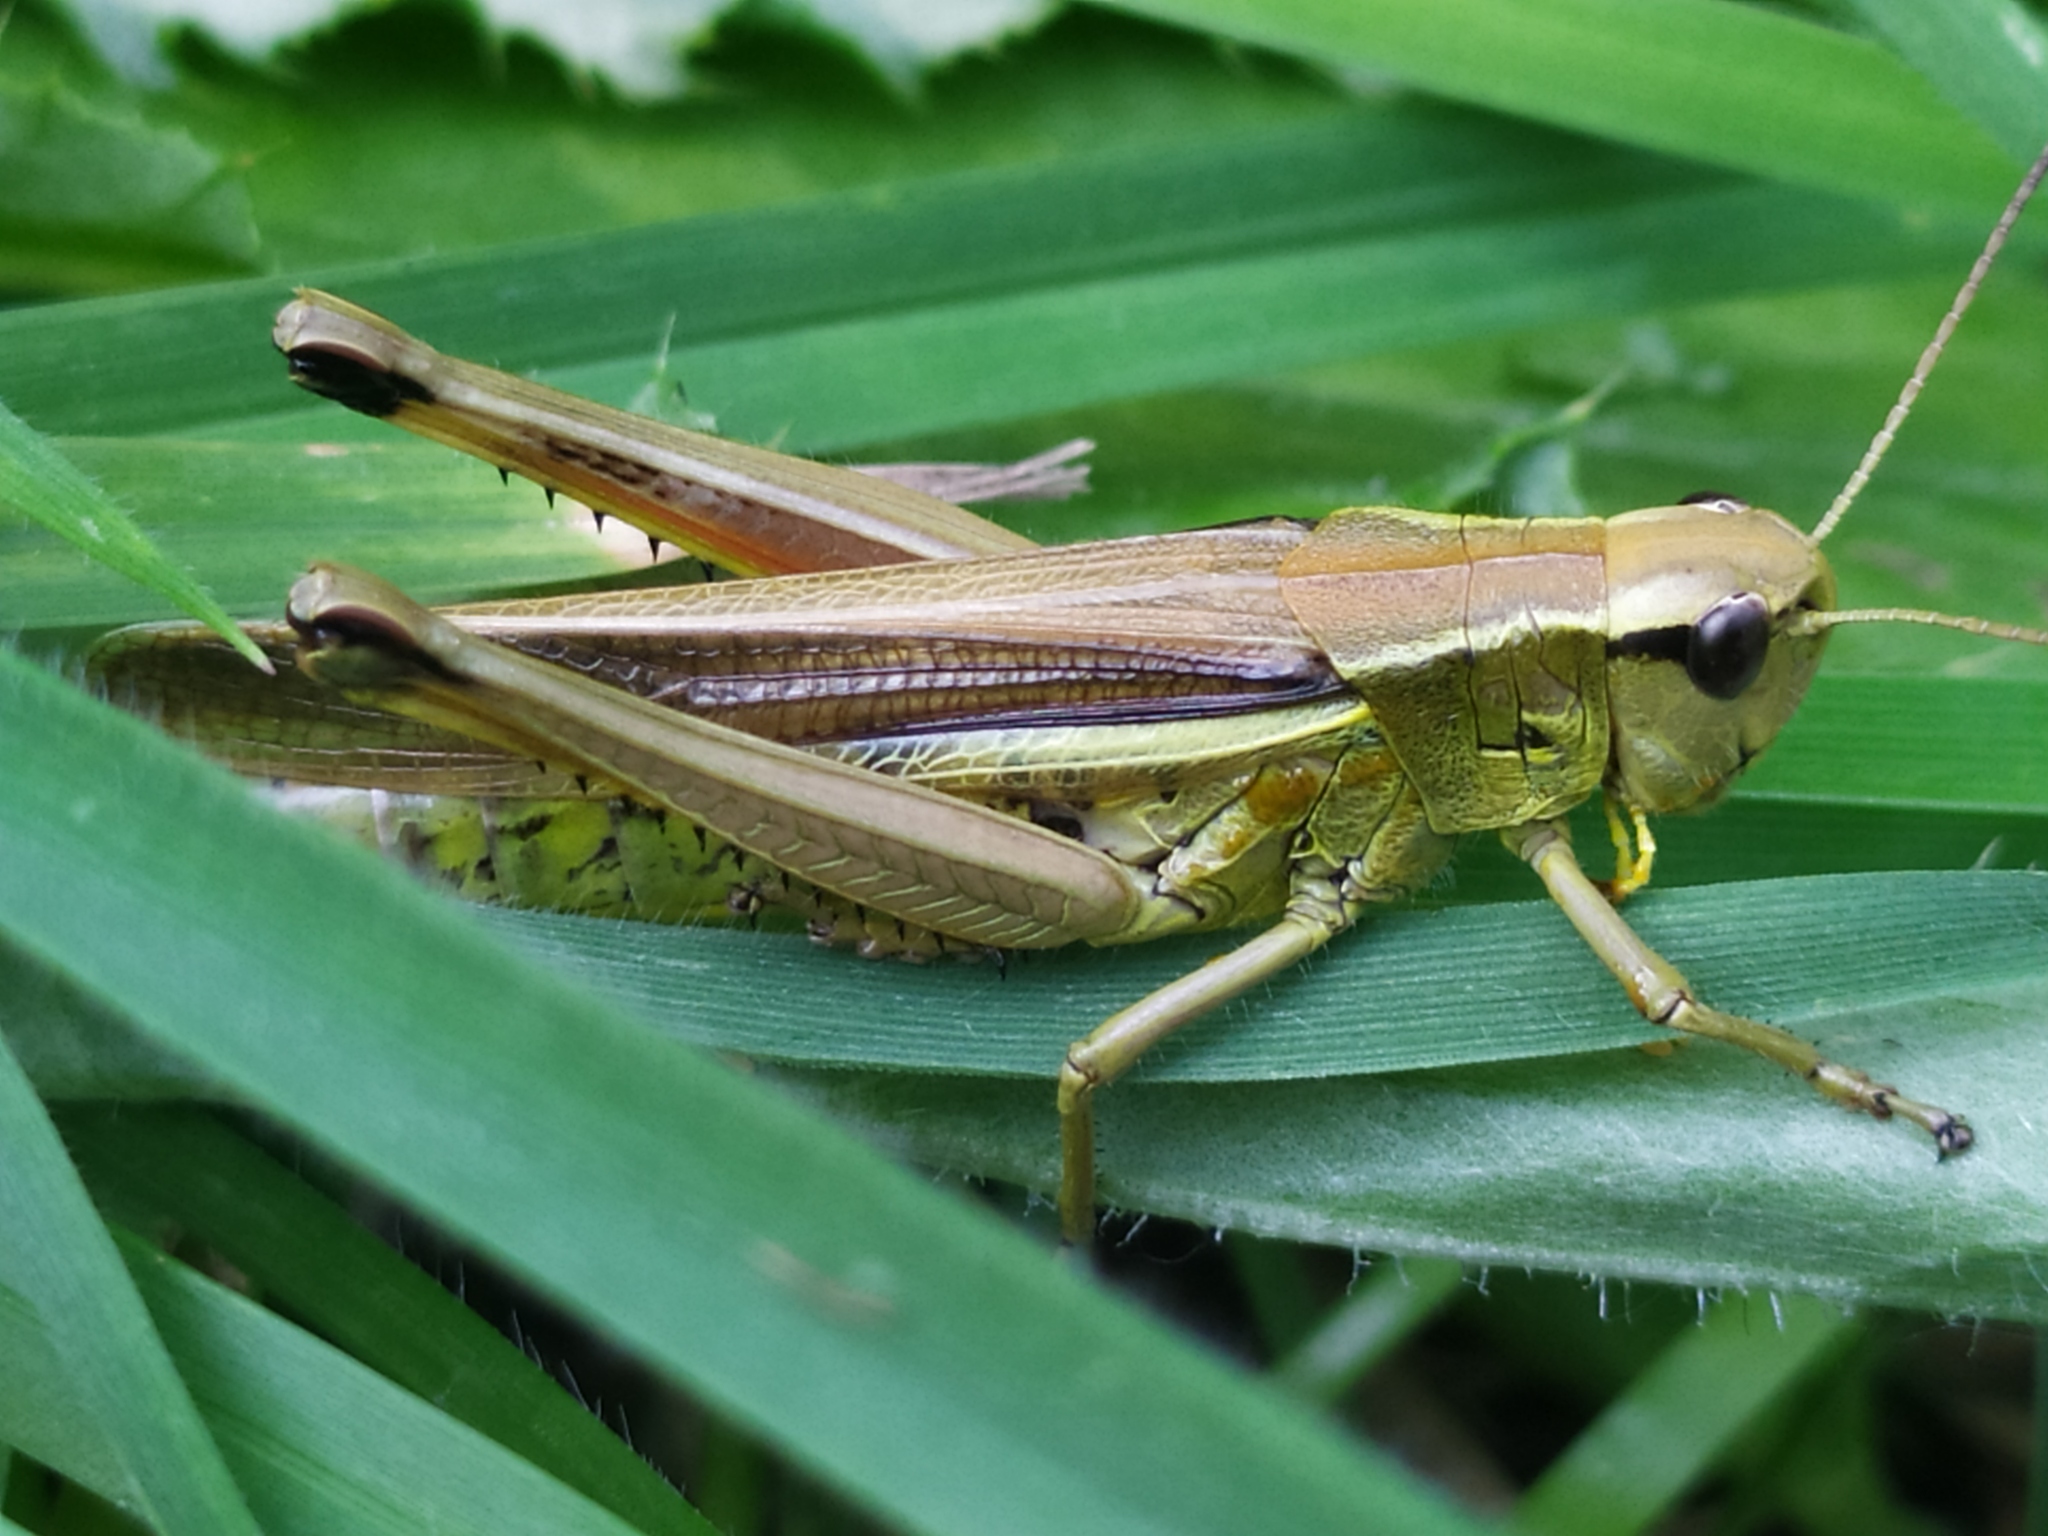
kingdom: Animalia
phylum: Arthropoda
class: Insecta
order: Orthoptera
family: Acrididae
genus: Stethophyma
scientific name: Stethophyma grossum
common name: Large marsh grasshopper
